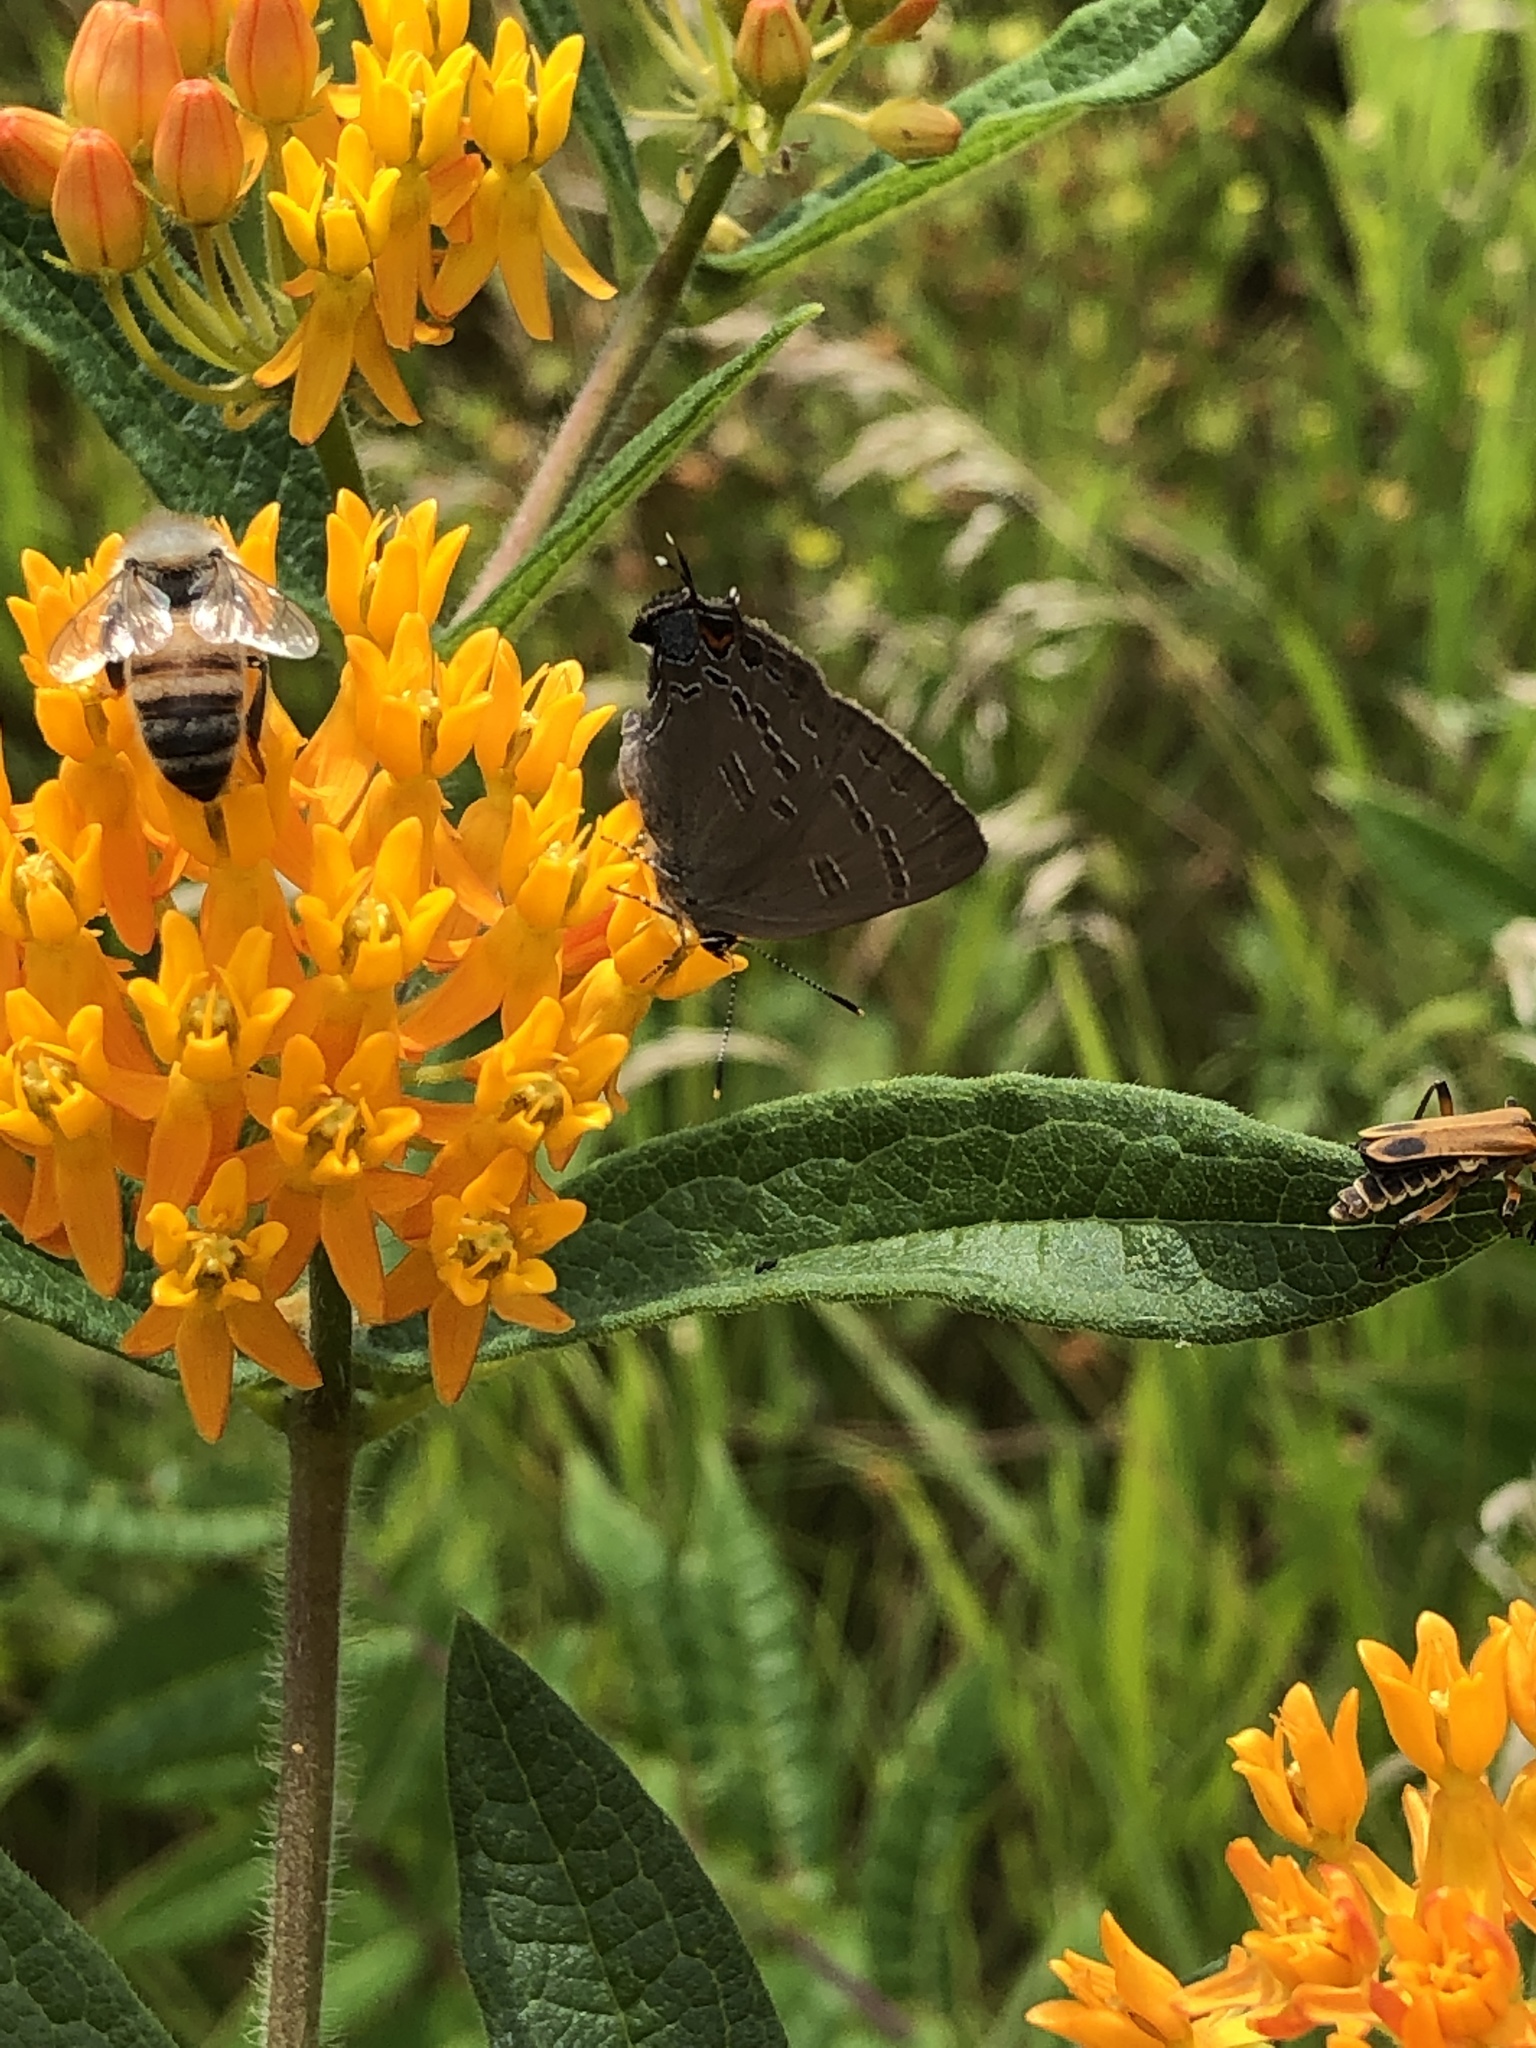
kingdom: Animalia
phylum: Arthropoda
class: Insecta
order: Lepidoptera
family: Lycaenidae
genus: Satyrium
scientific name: Satyrium calanus
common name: Banded hairstreak
